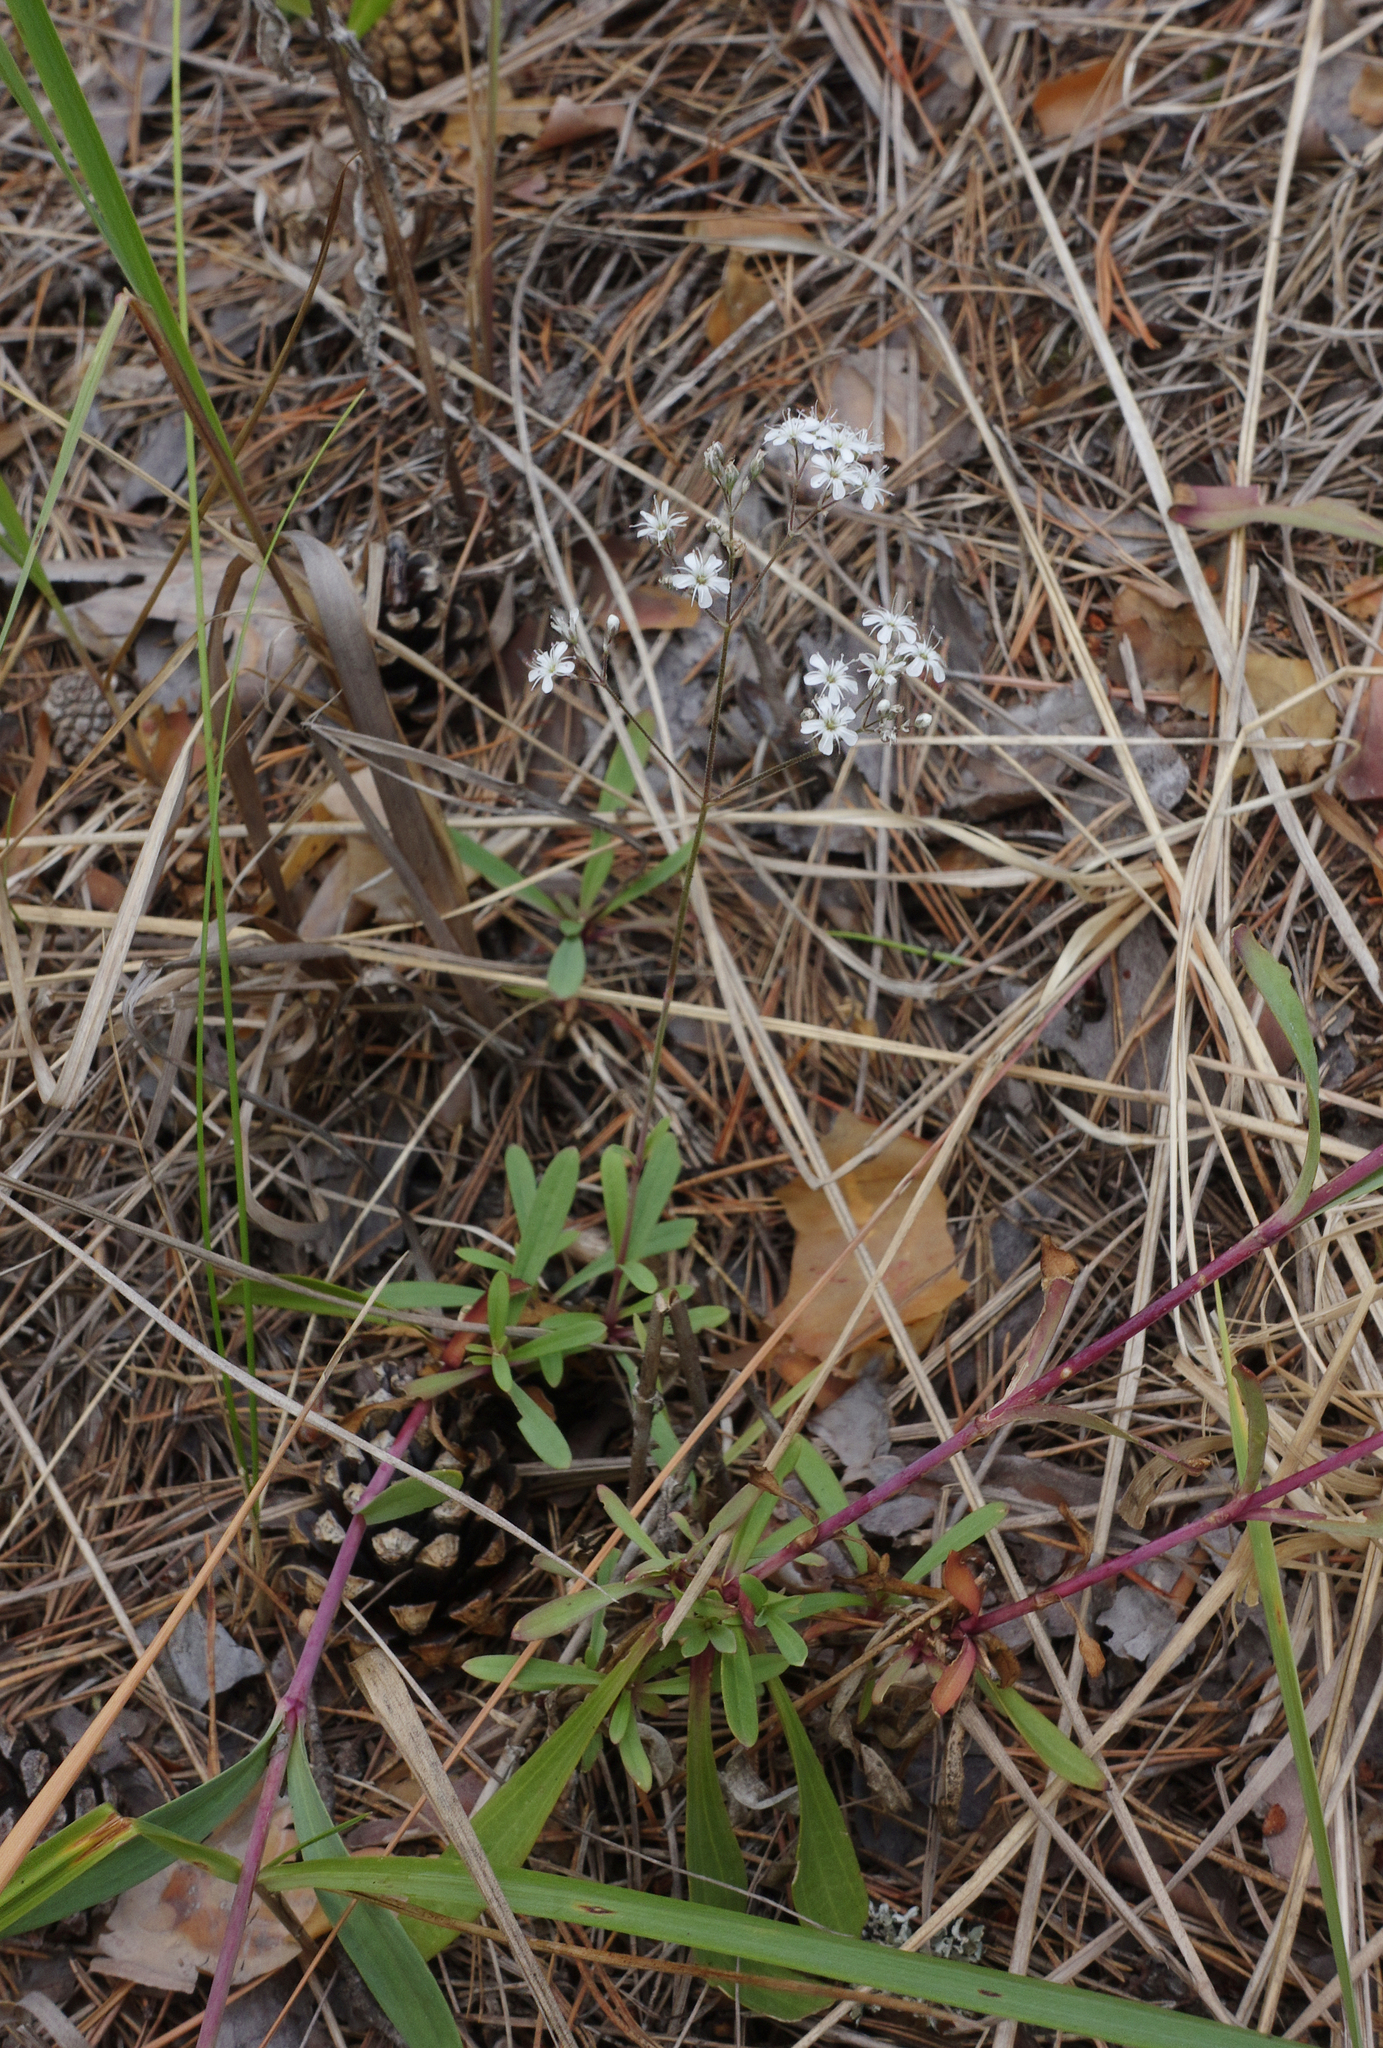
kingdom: Plantae
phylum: Tracheophyta
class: Magnoliopsida
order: Caryophyllales
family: Caryophyllaceae
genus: Gypsophila
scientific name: Gypsophila altissima
